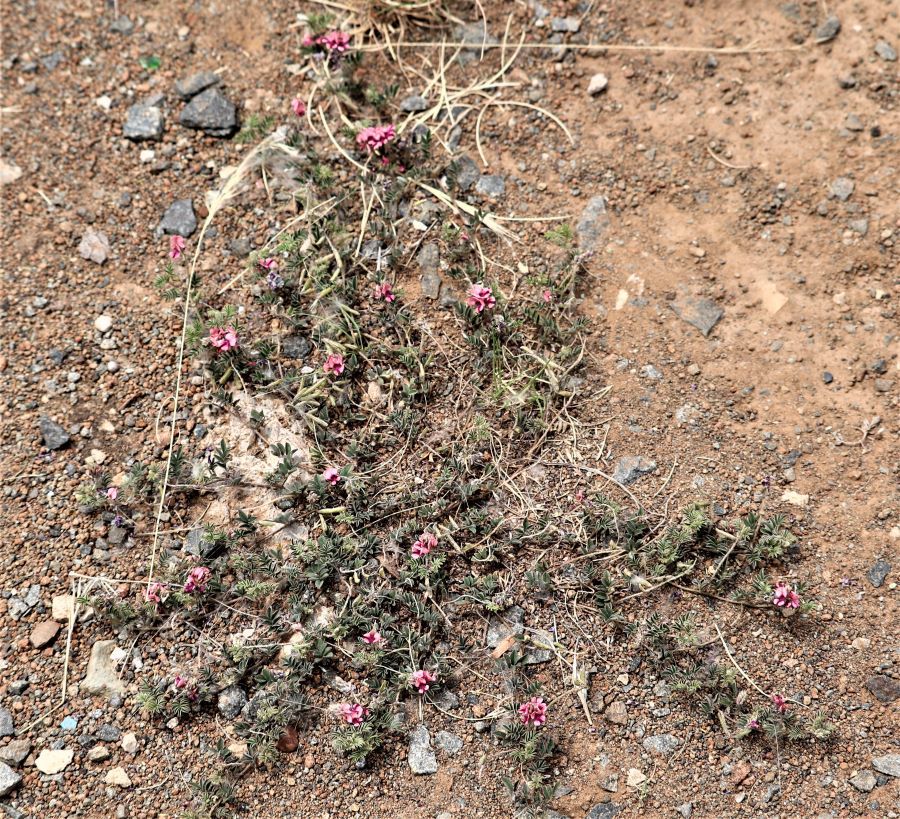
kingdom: Plantae
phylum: Tracheophyta
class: Magnoliopsida
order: Fabales
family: Fabaceae
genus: Indigofera
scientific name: Indigofera alternans
